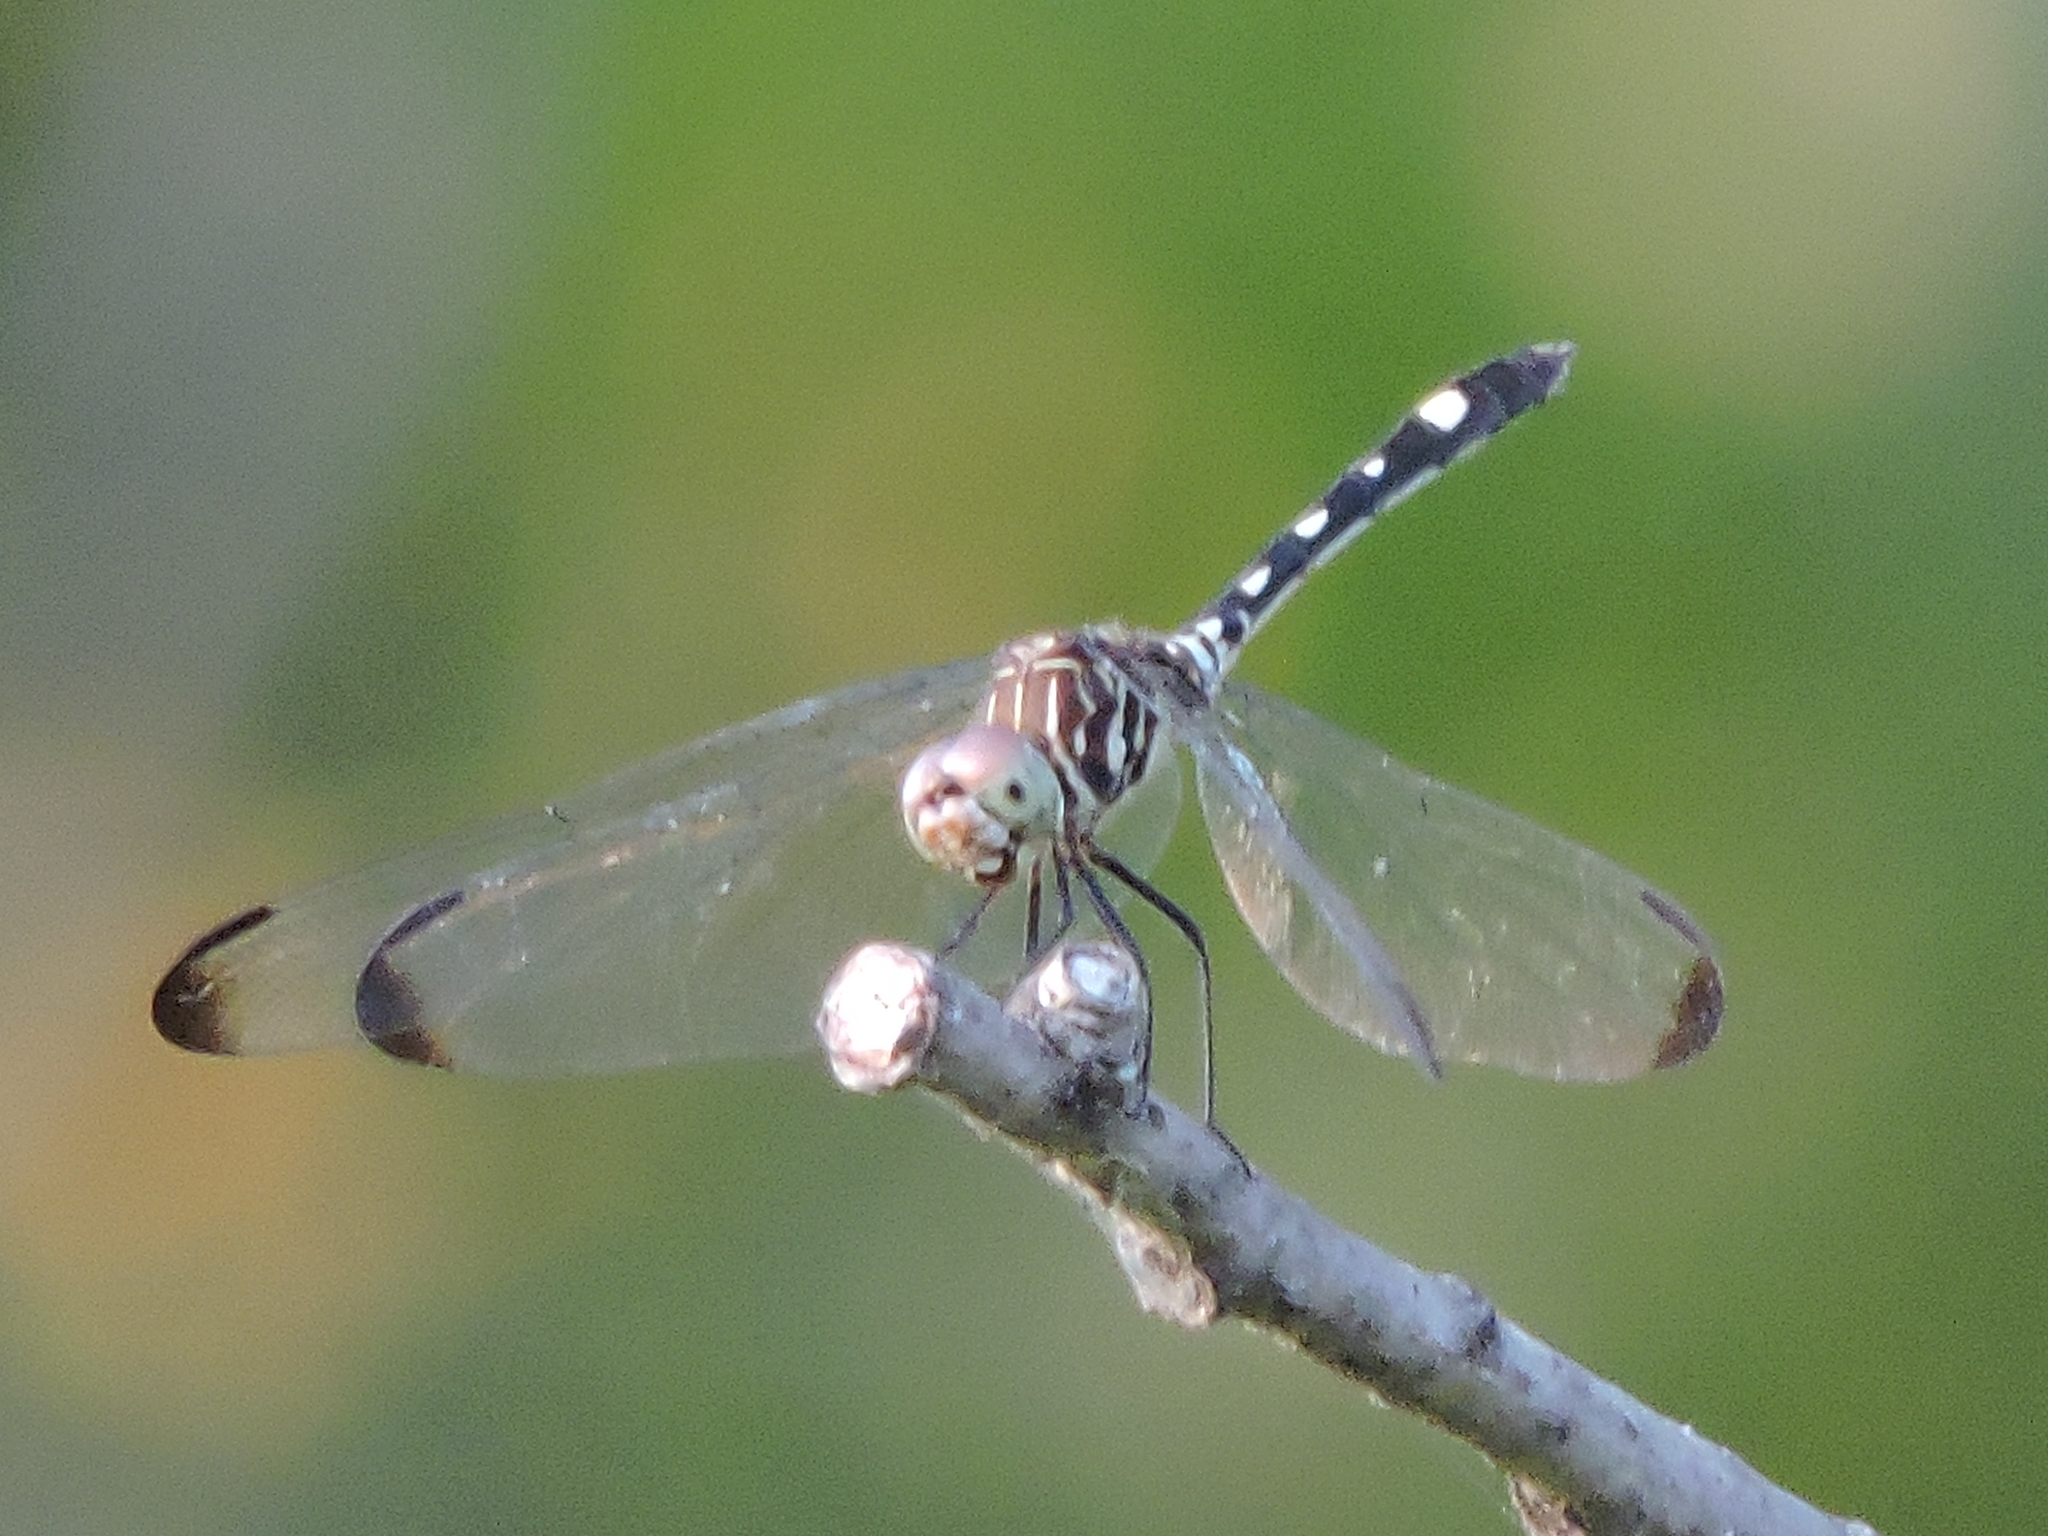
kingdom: Animalia
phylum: Arthropoda
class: Insecta
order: Odonata
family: Libellulidae
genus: Dythemis
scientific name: Dythemis velox
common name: Swift setwing
